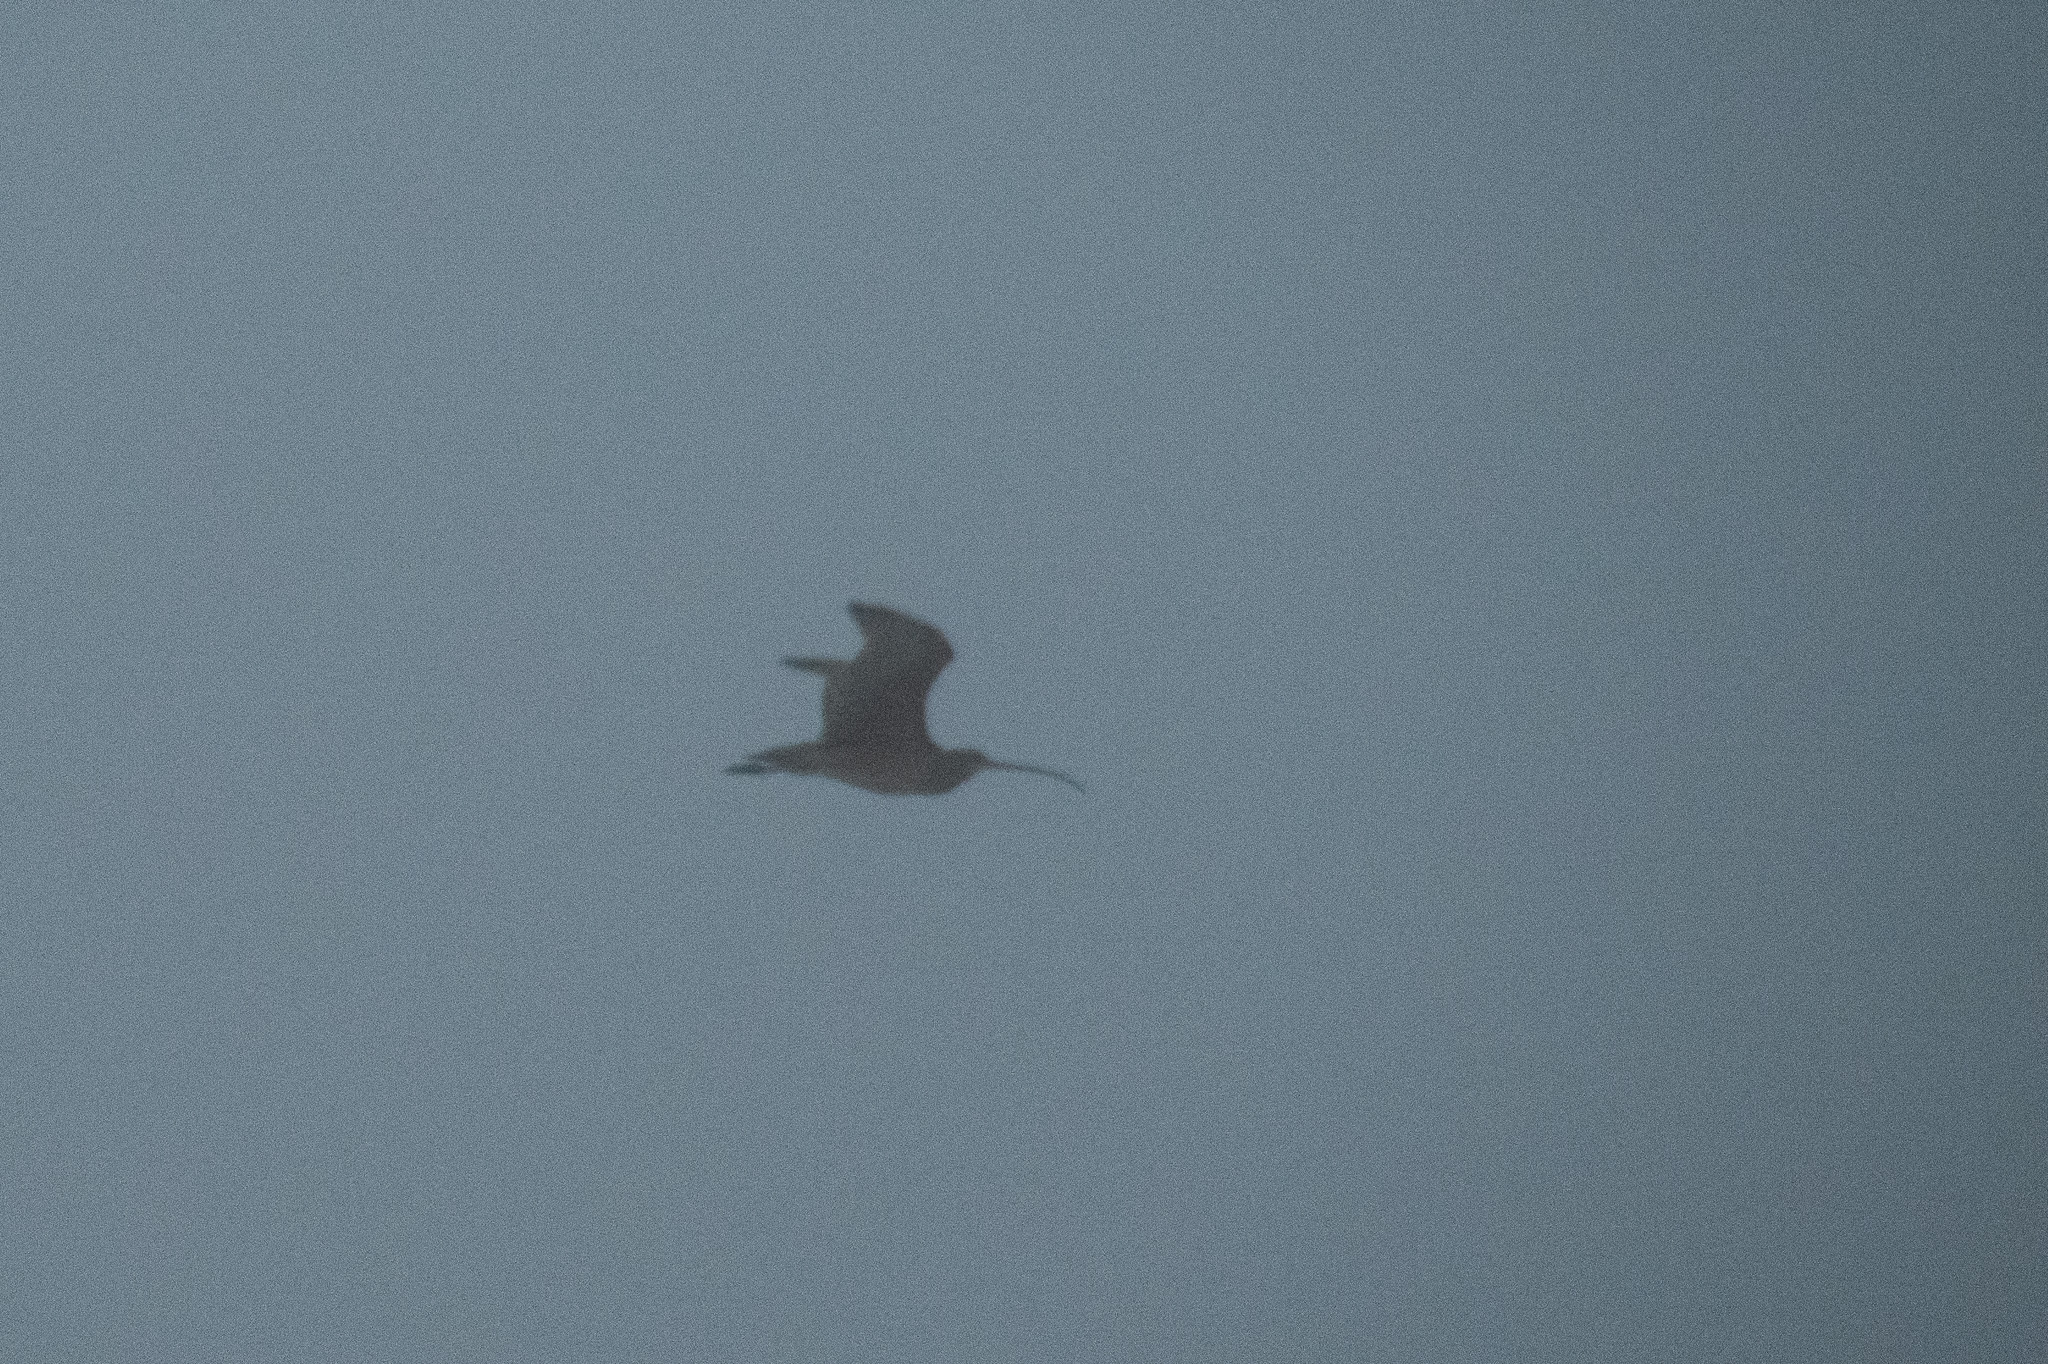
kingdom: Animalia
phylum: Chordata
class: Aves
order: Charadriiformes
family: Scolopacidae
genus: Numenius
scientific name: Numenius americanus
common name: Long-billed curlew
